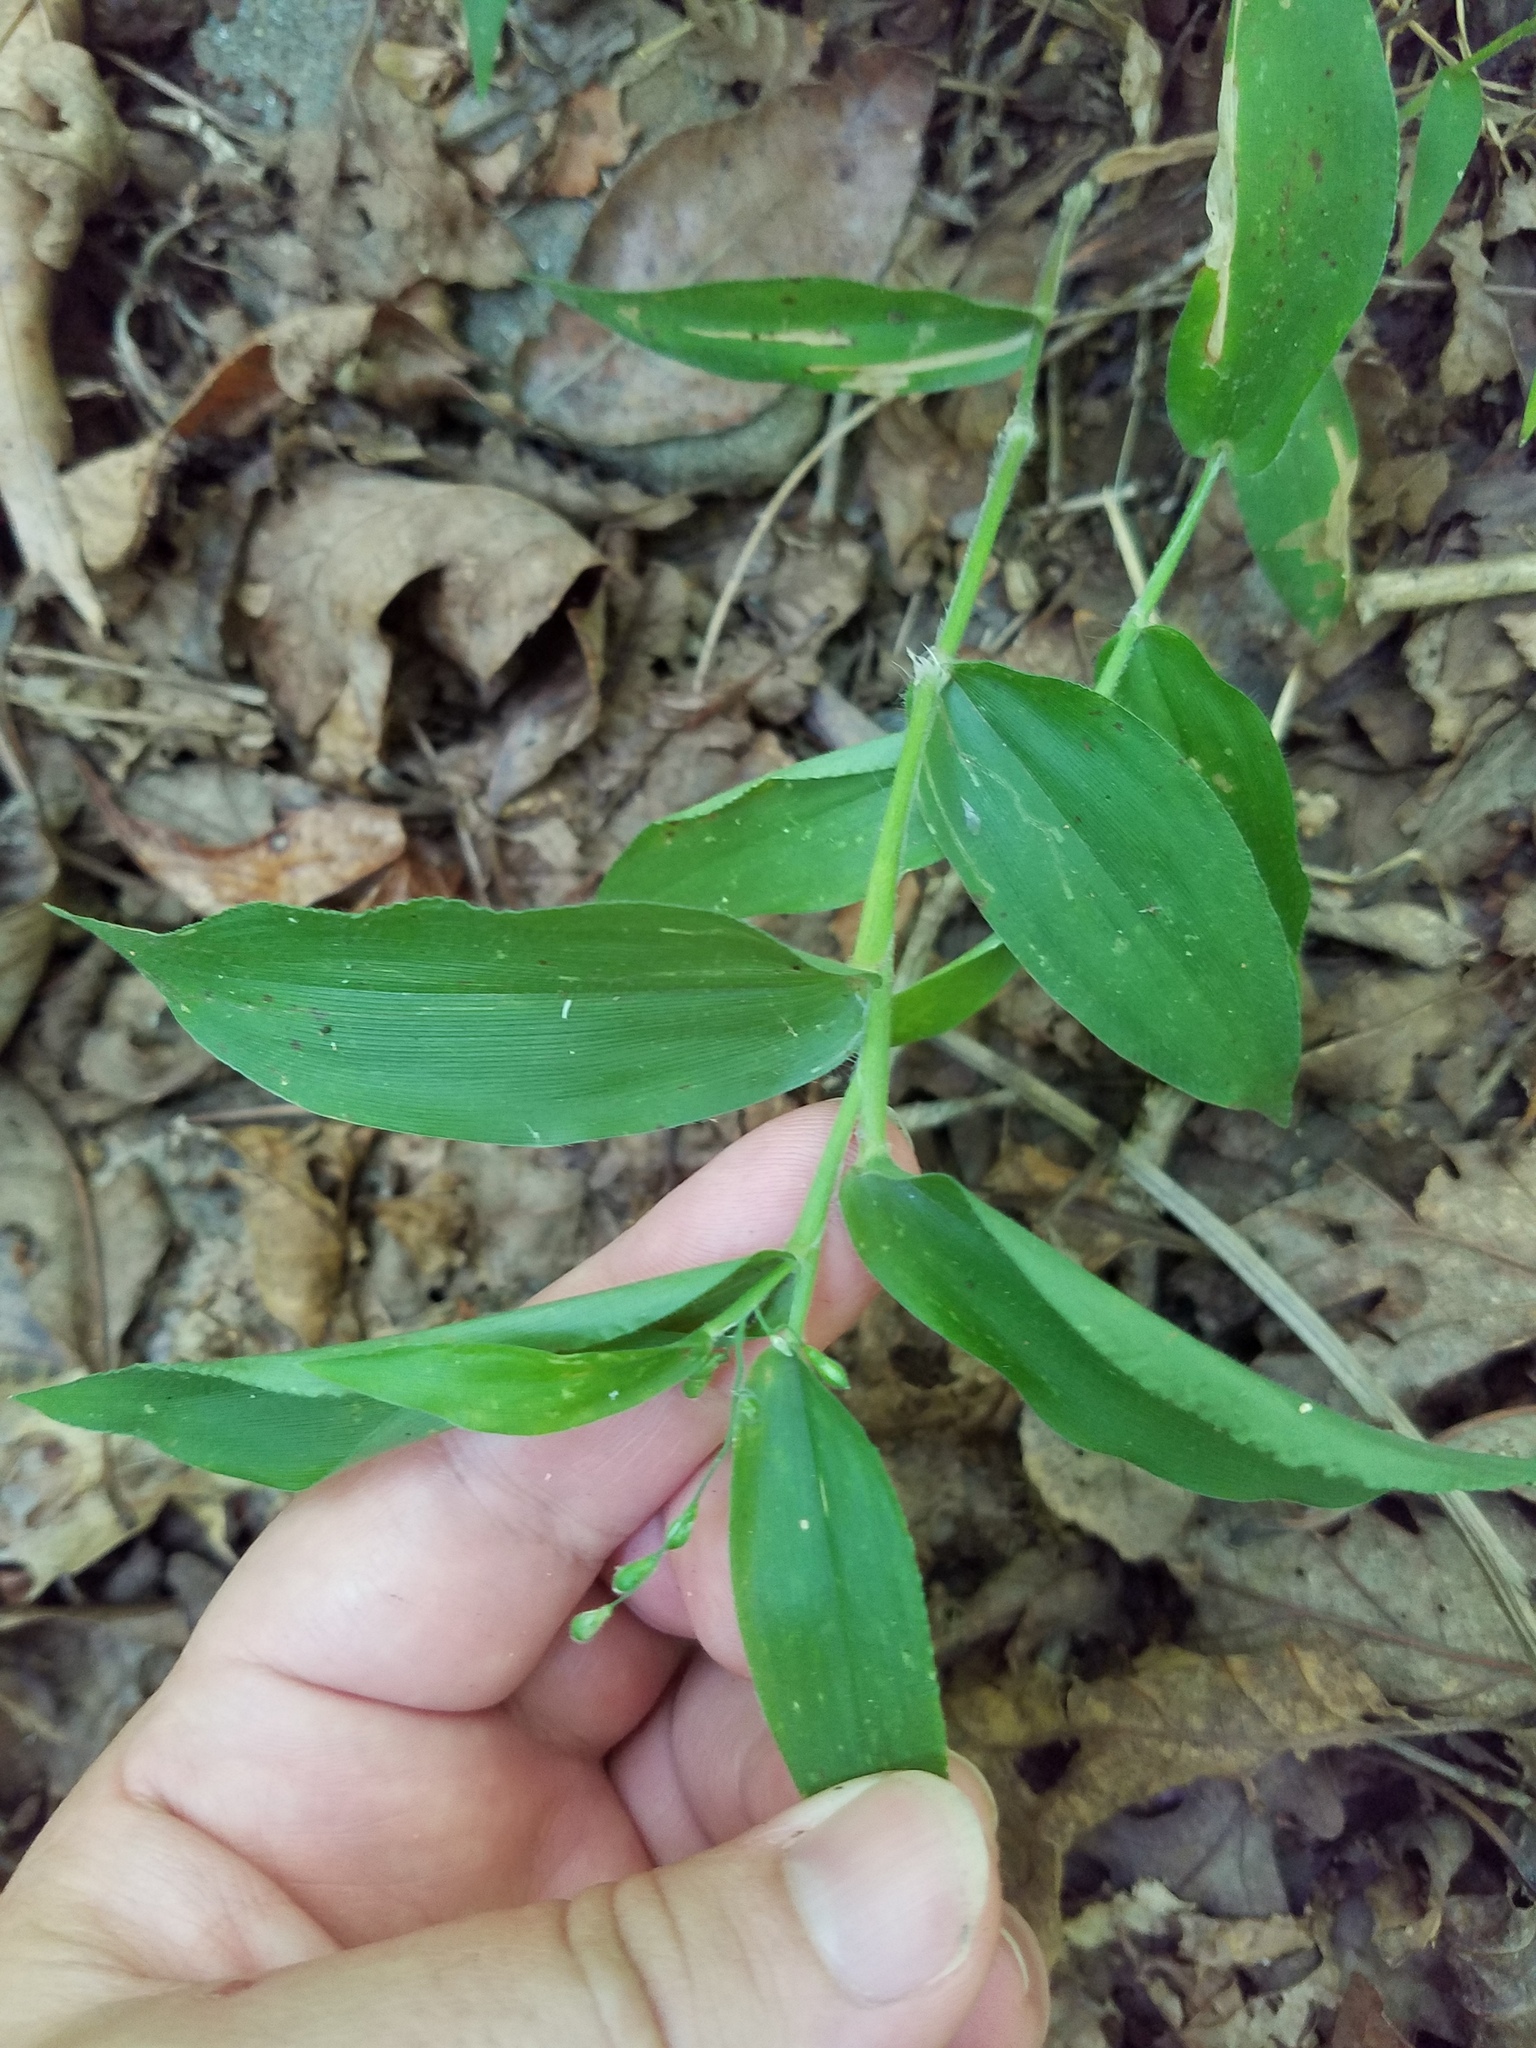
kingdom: Plantae
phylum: Tracheophyta
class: Liliopsida
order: Poales
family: Poaceae
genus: Dichanthelium
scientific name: Dichanthelium boscii
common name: Bosc's panic grass
